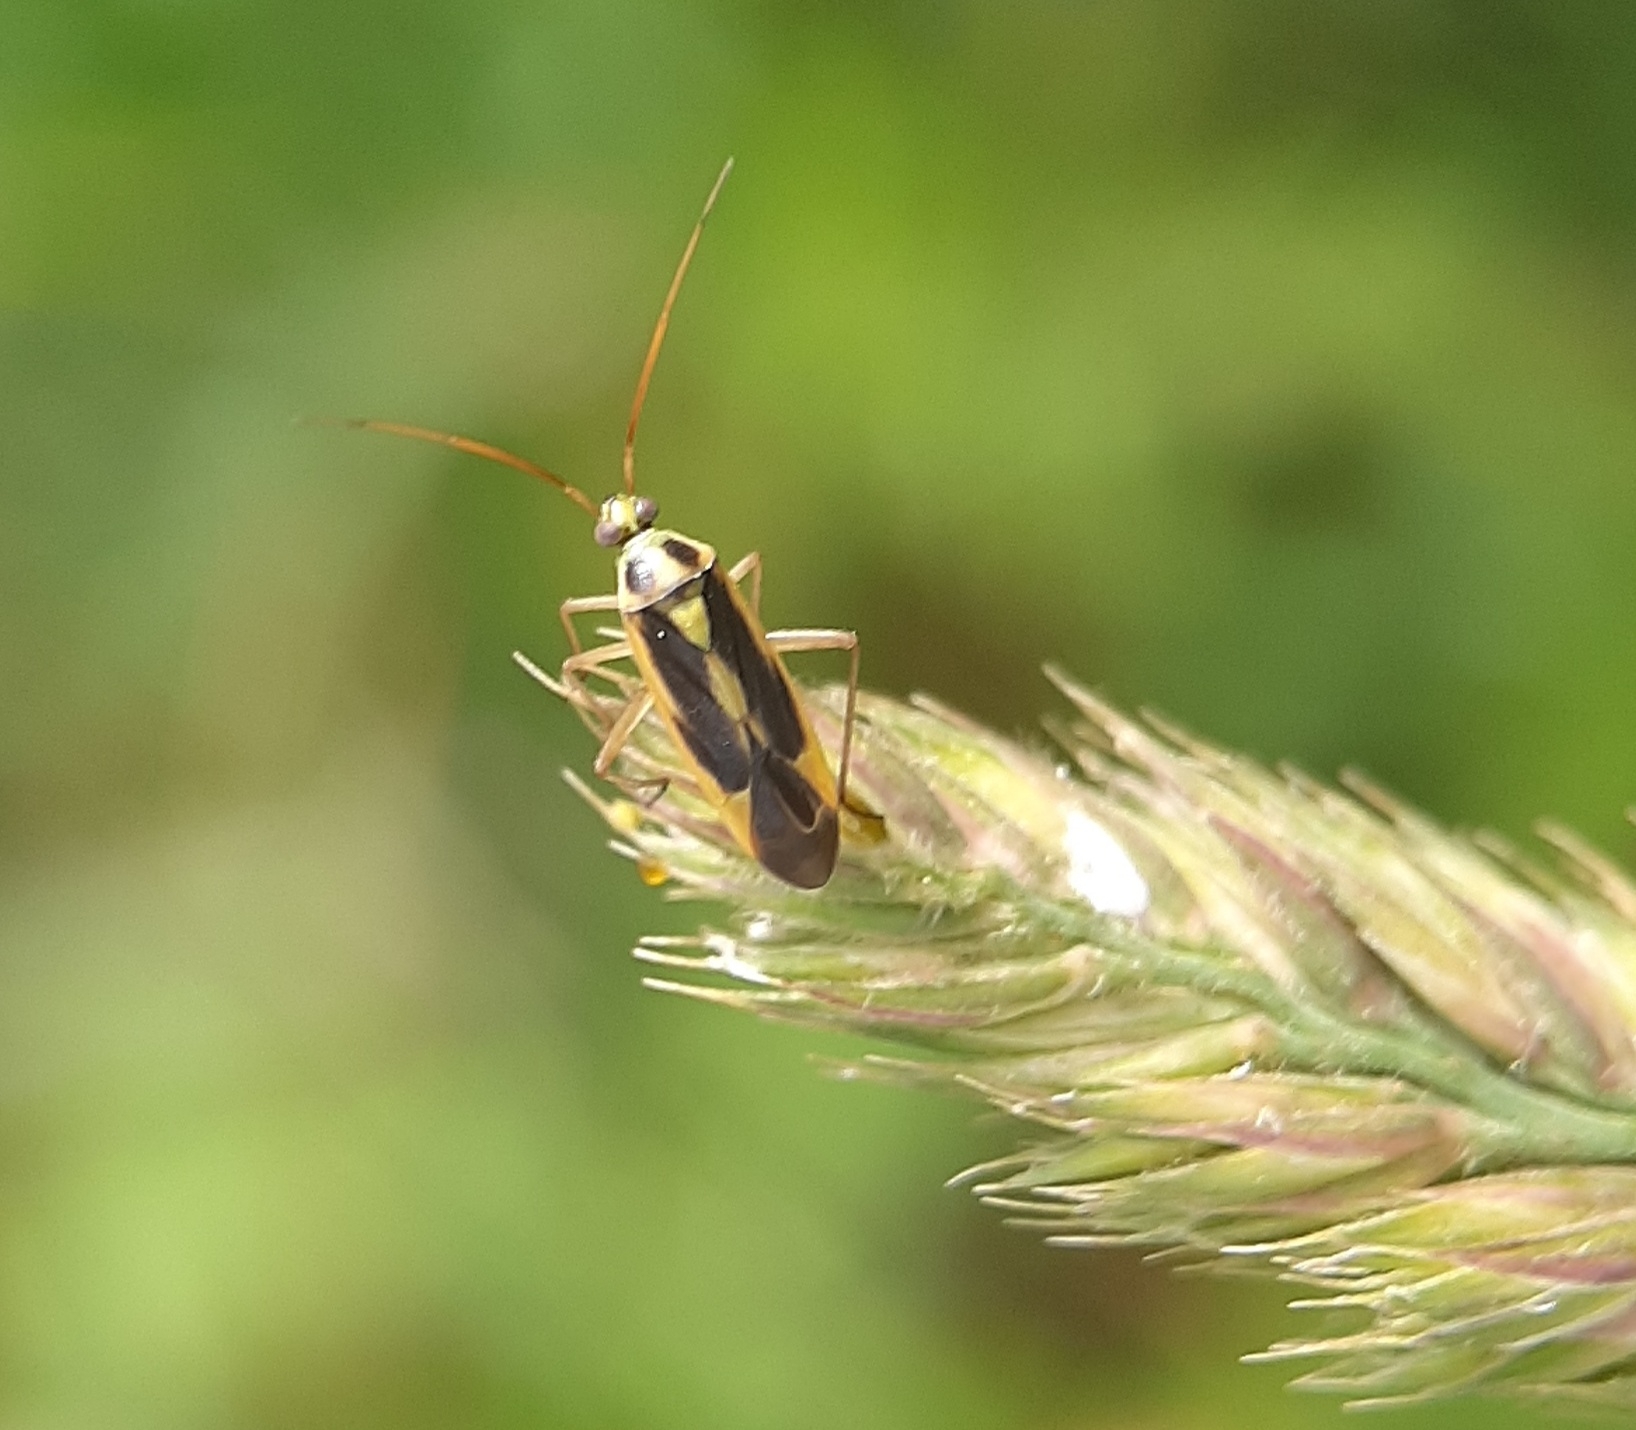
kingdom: Animalia
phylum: Arthropoda
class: Insecta
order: Hemiptera
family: Miridae
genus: Stenotus
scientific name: Stenotus binotatus
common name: Plant bug
